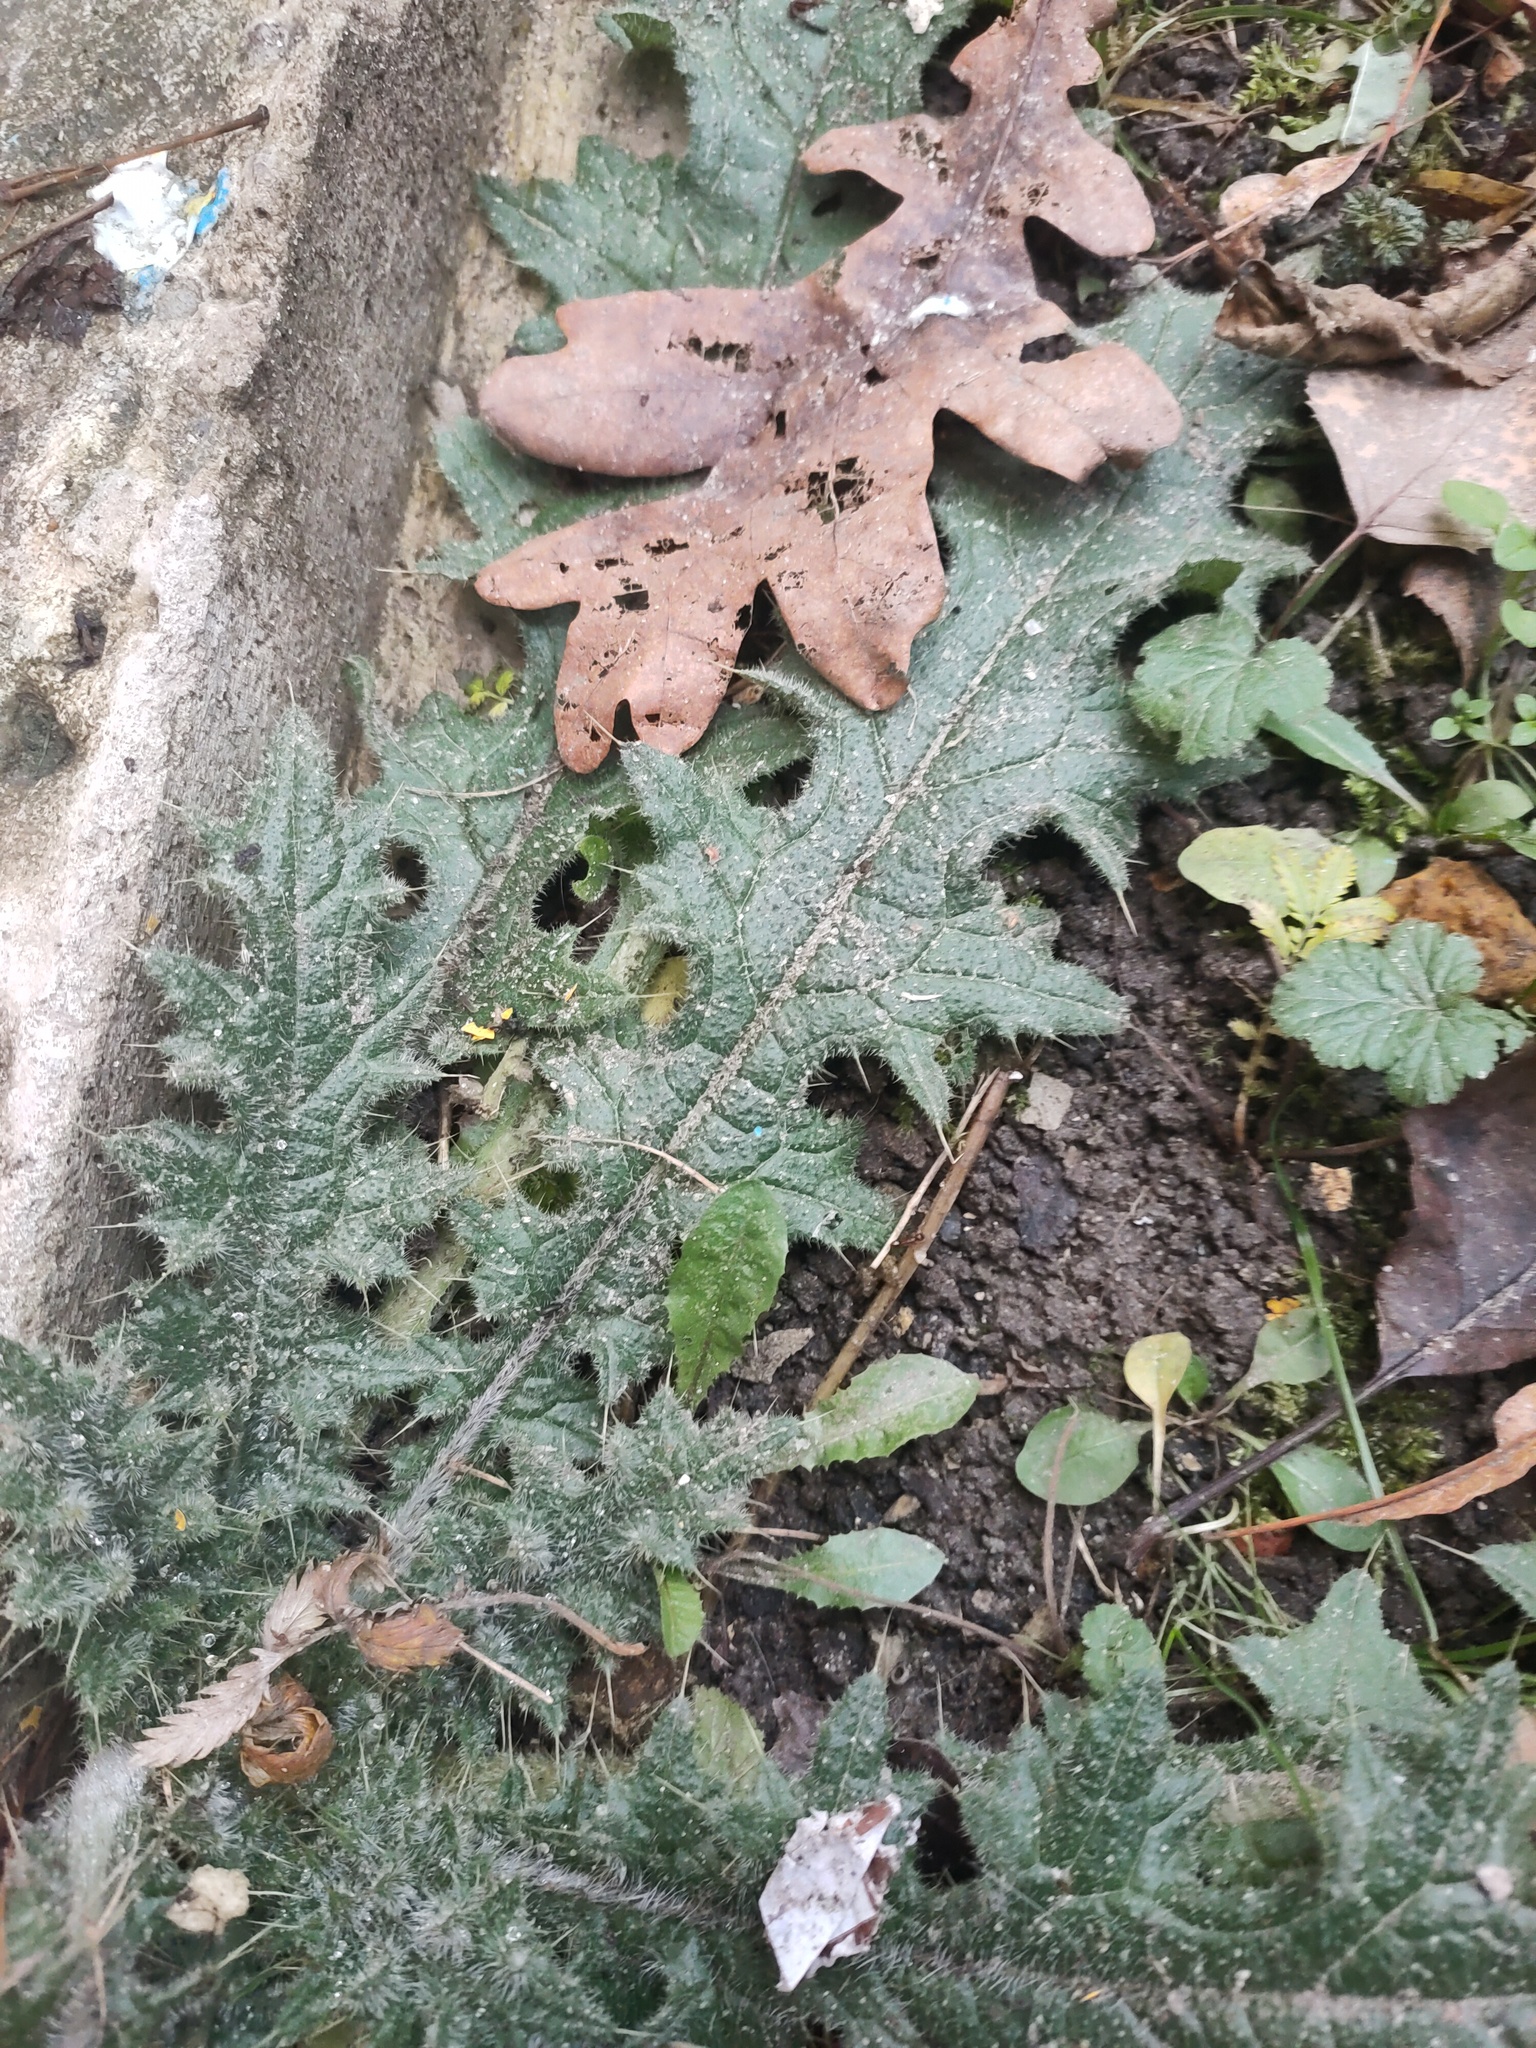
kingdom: Plantae
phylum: Tracheophyta
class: Magnoliopsida
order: Asterales
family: Asteraceae
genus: Cirsium
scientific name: Cirsium vulgare
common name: Bull thistle
